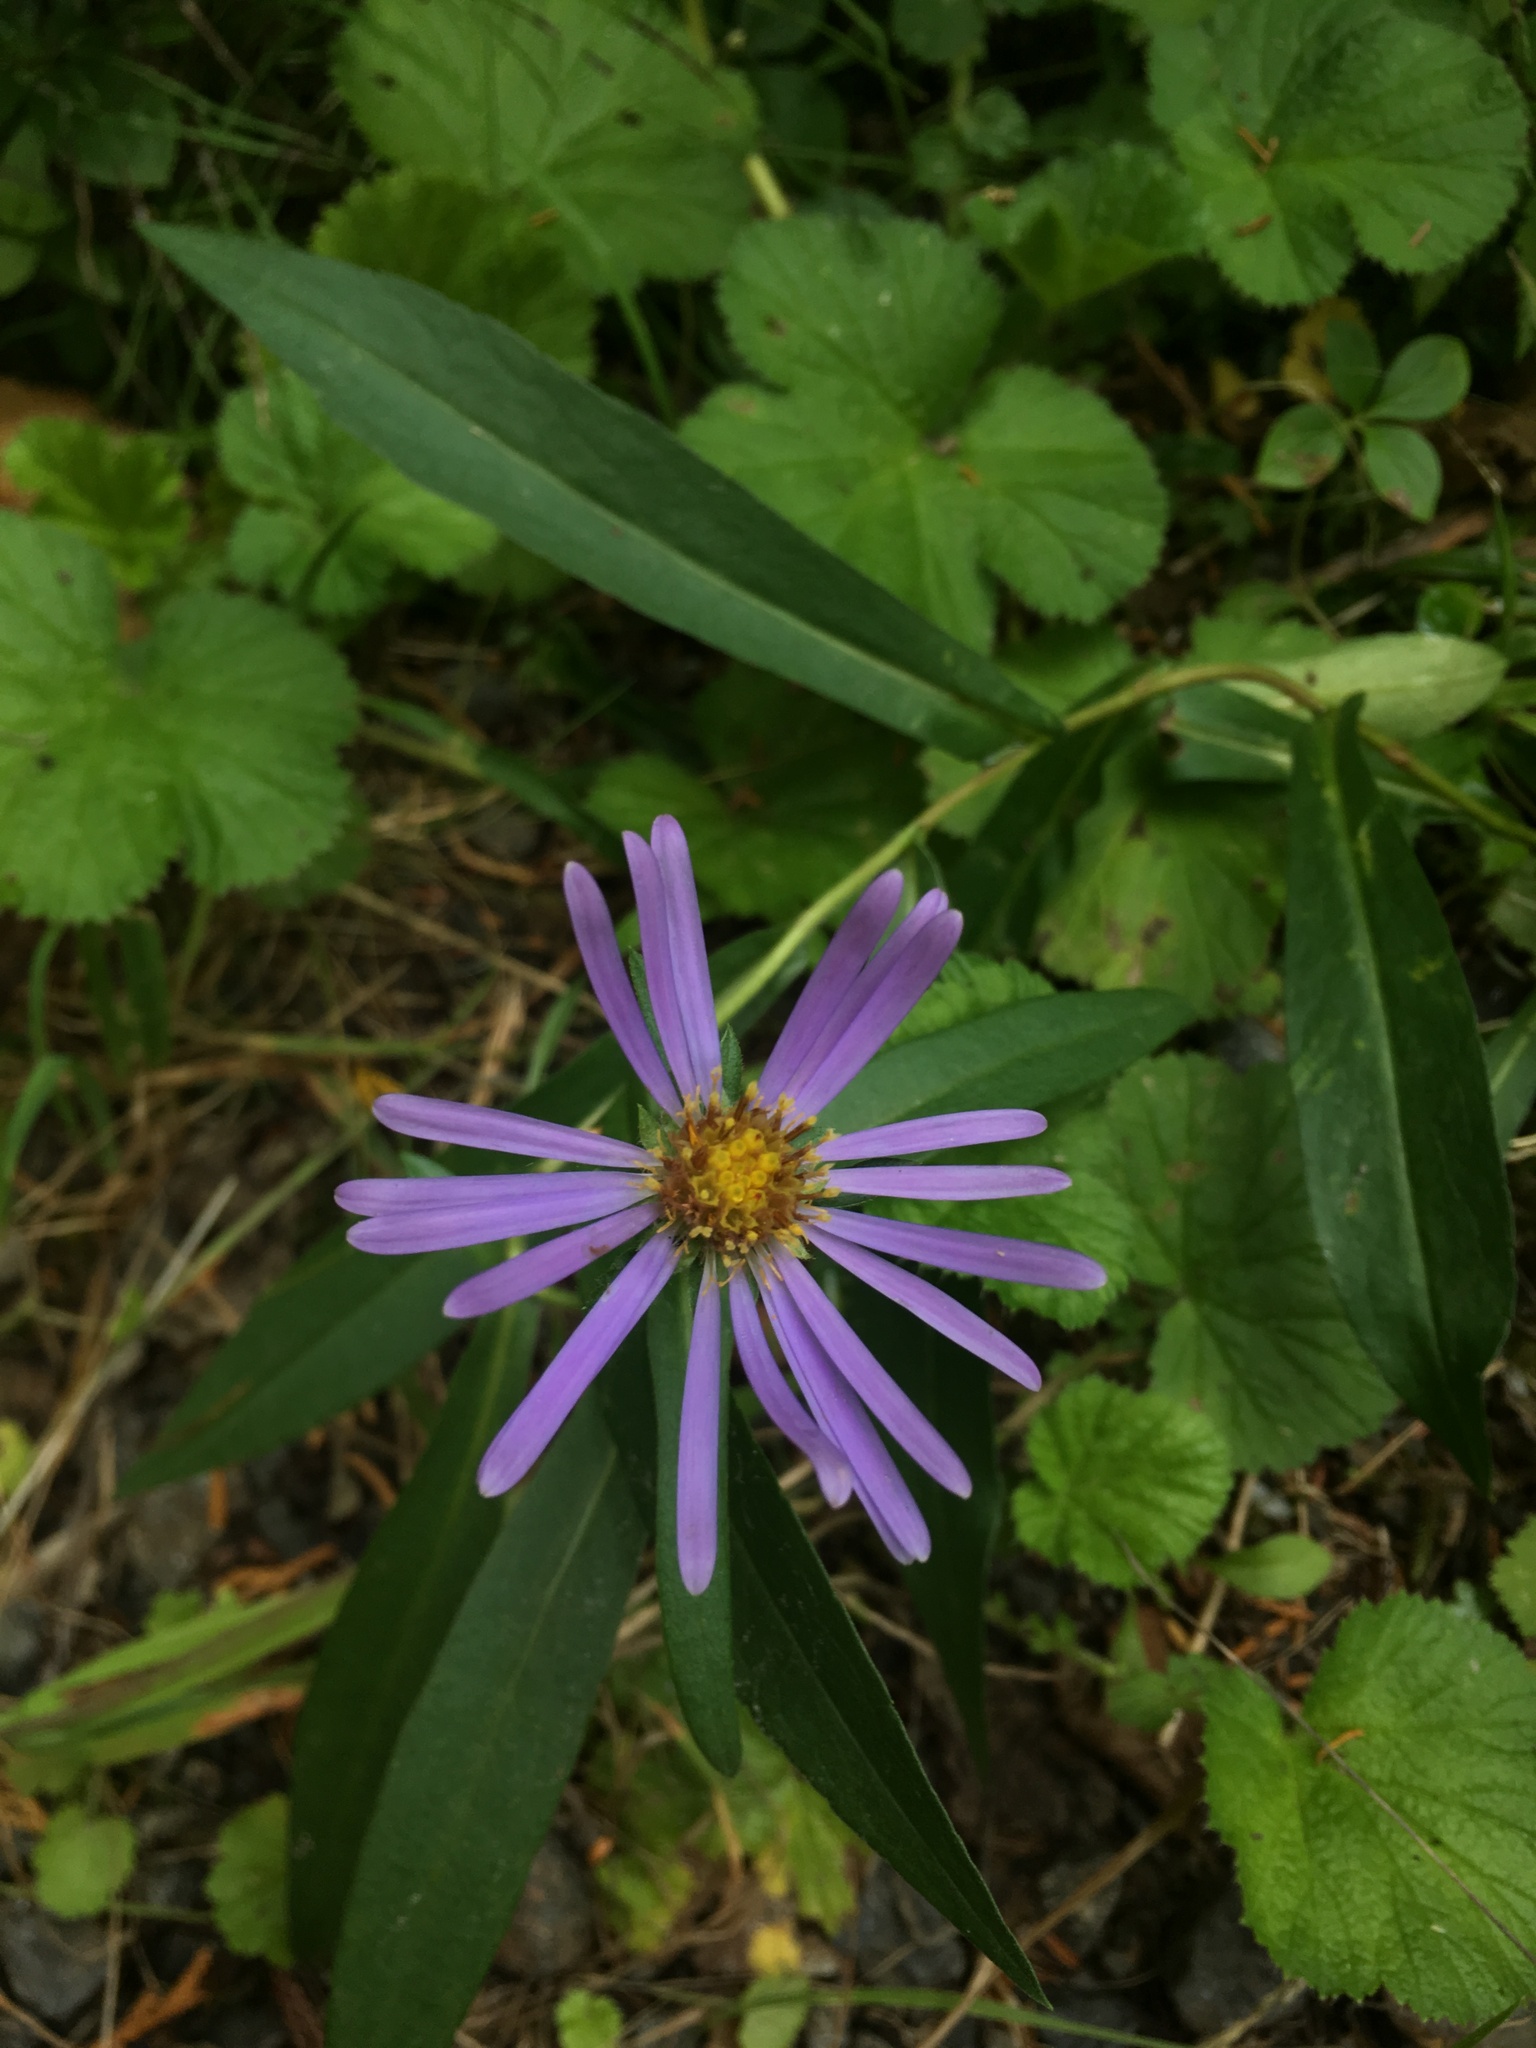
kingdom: Plantae
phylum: Tracheophyta
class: Magnoliopsida
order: Asterales
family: Asteraceae
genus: Symphyotrichum
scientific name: Symphyotrichum subspicatum
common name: Douglas' aster
